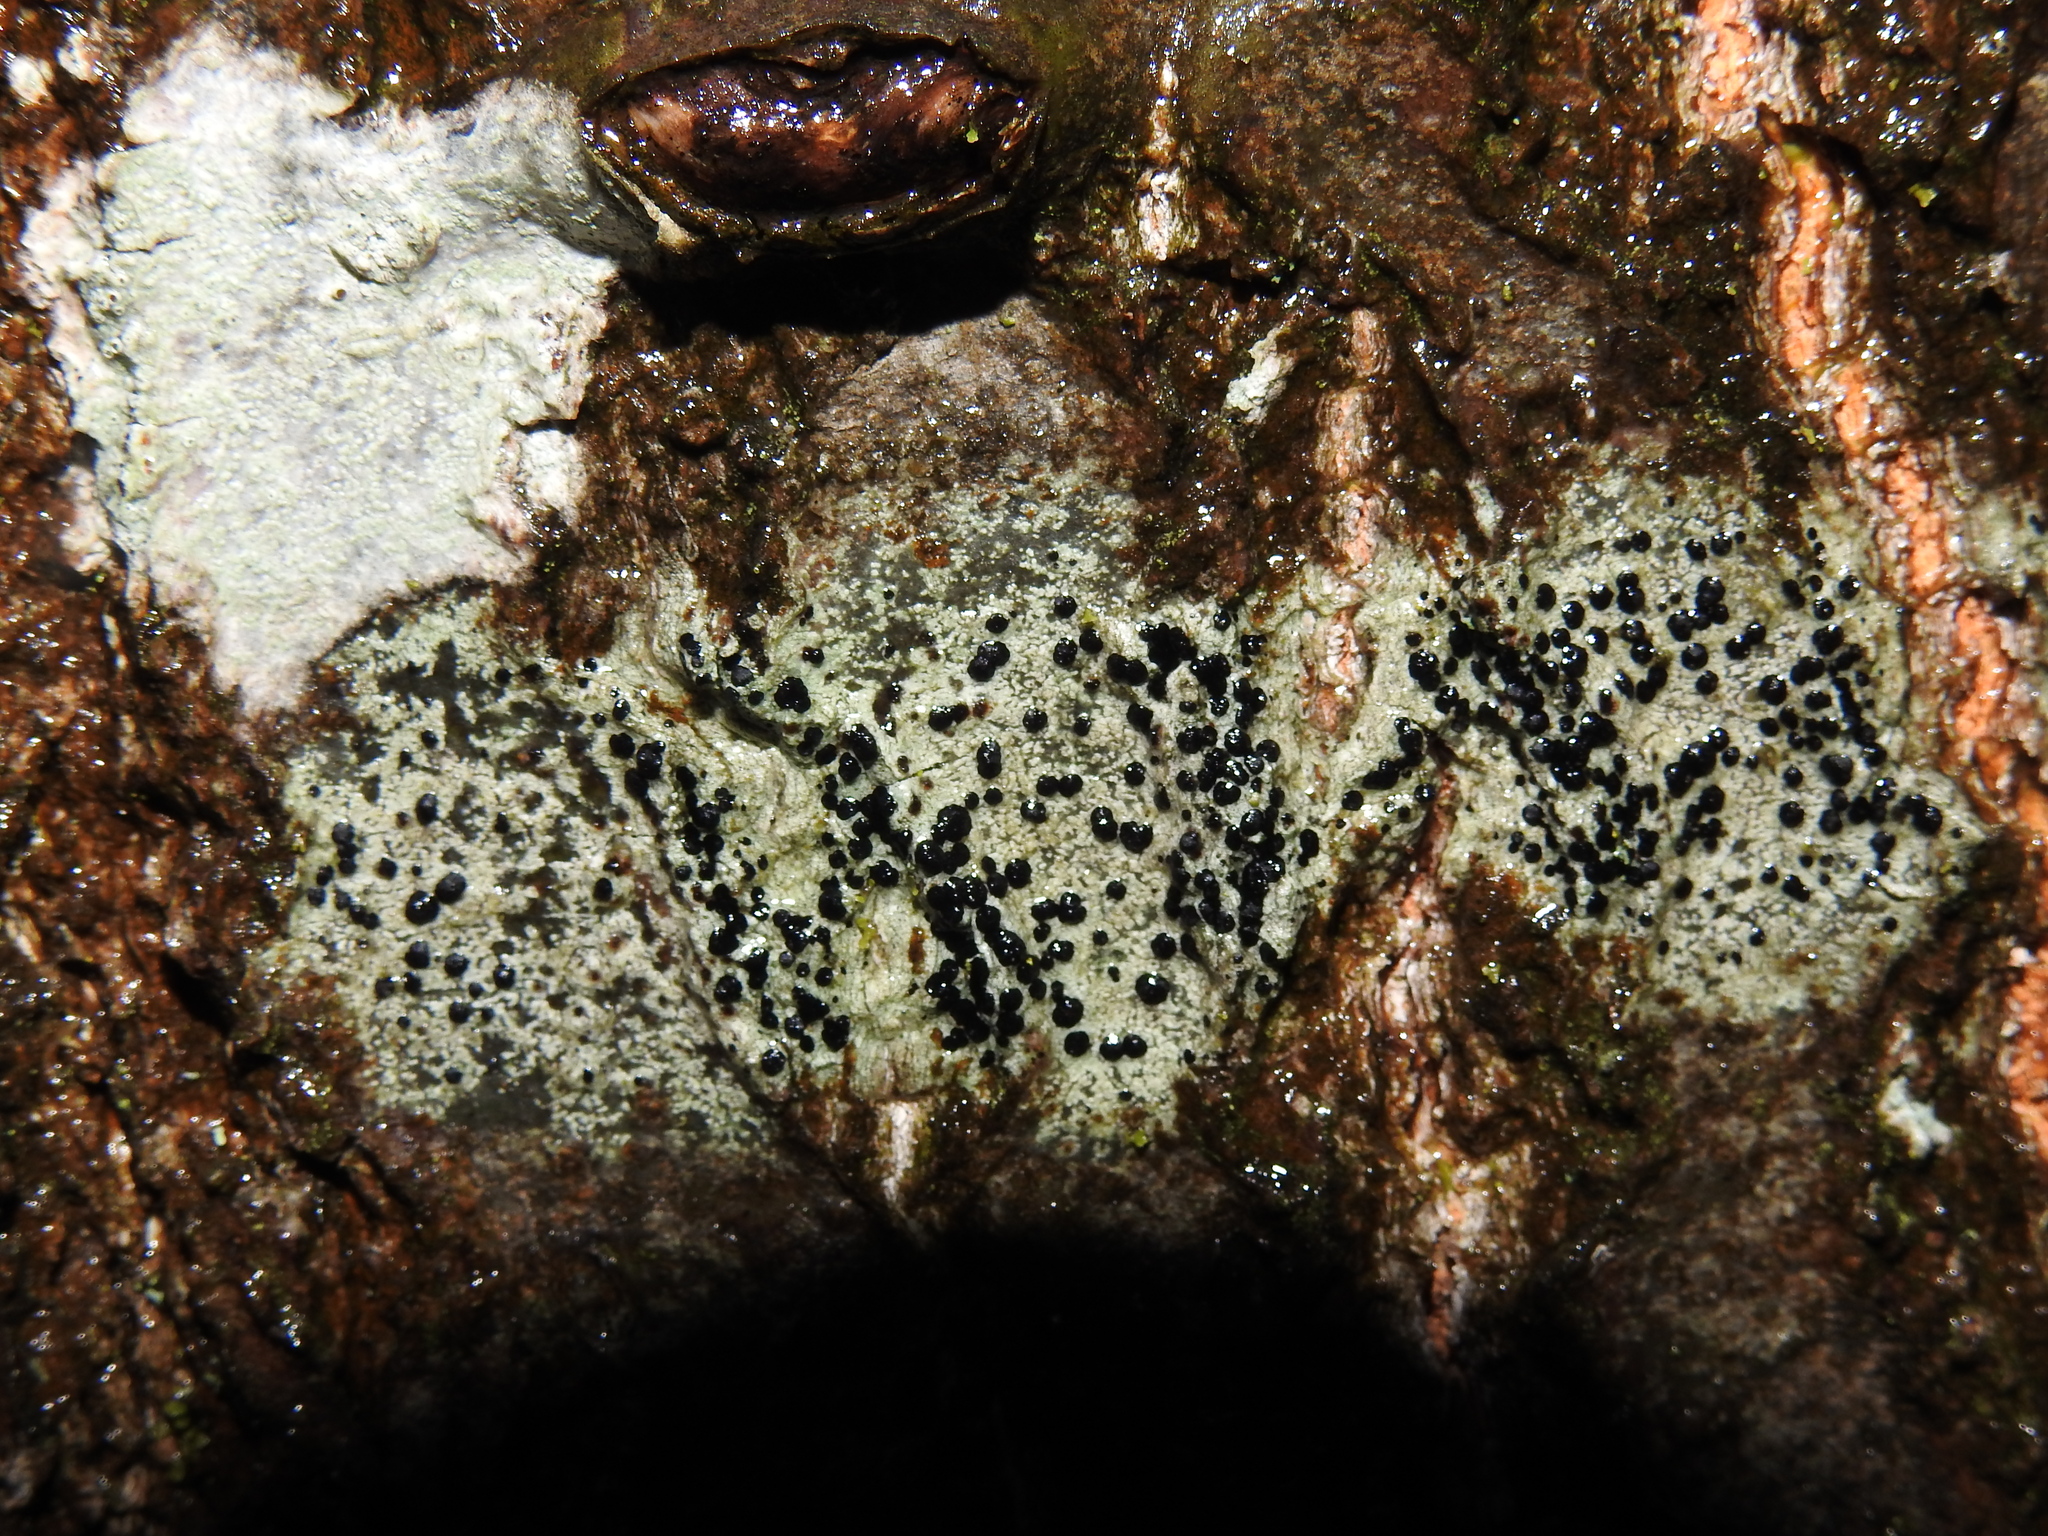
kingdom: Fungi
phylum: Ascomycota
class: Lecanoromycetes
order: Lecanorales
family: Lecanoraceae
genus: Lecidella
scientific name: Lecidella elaeochroma
